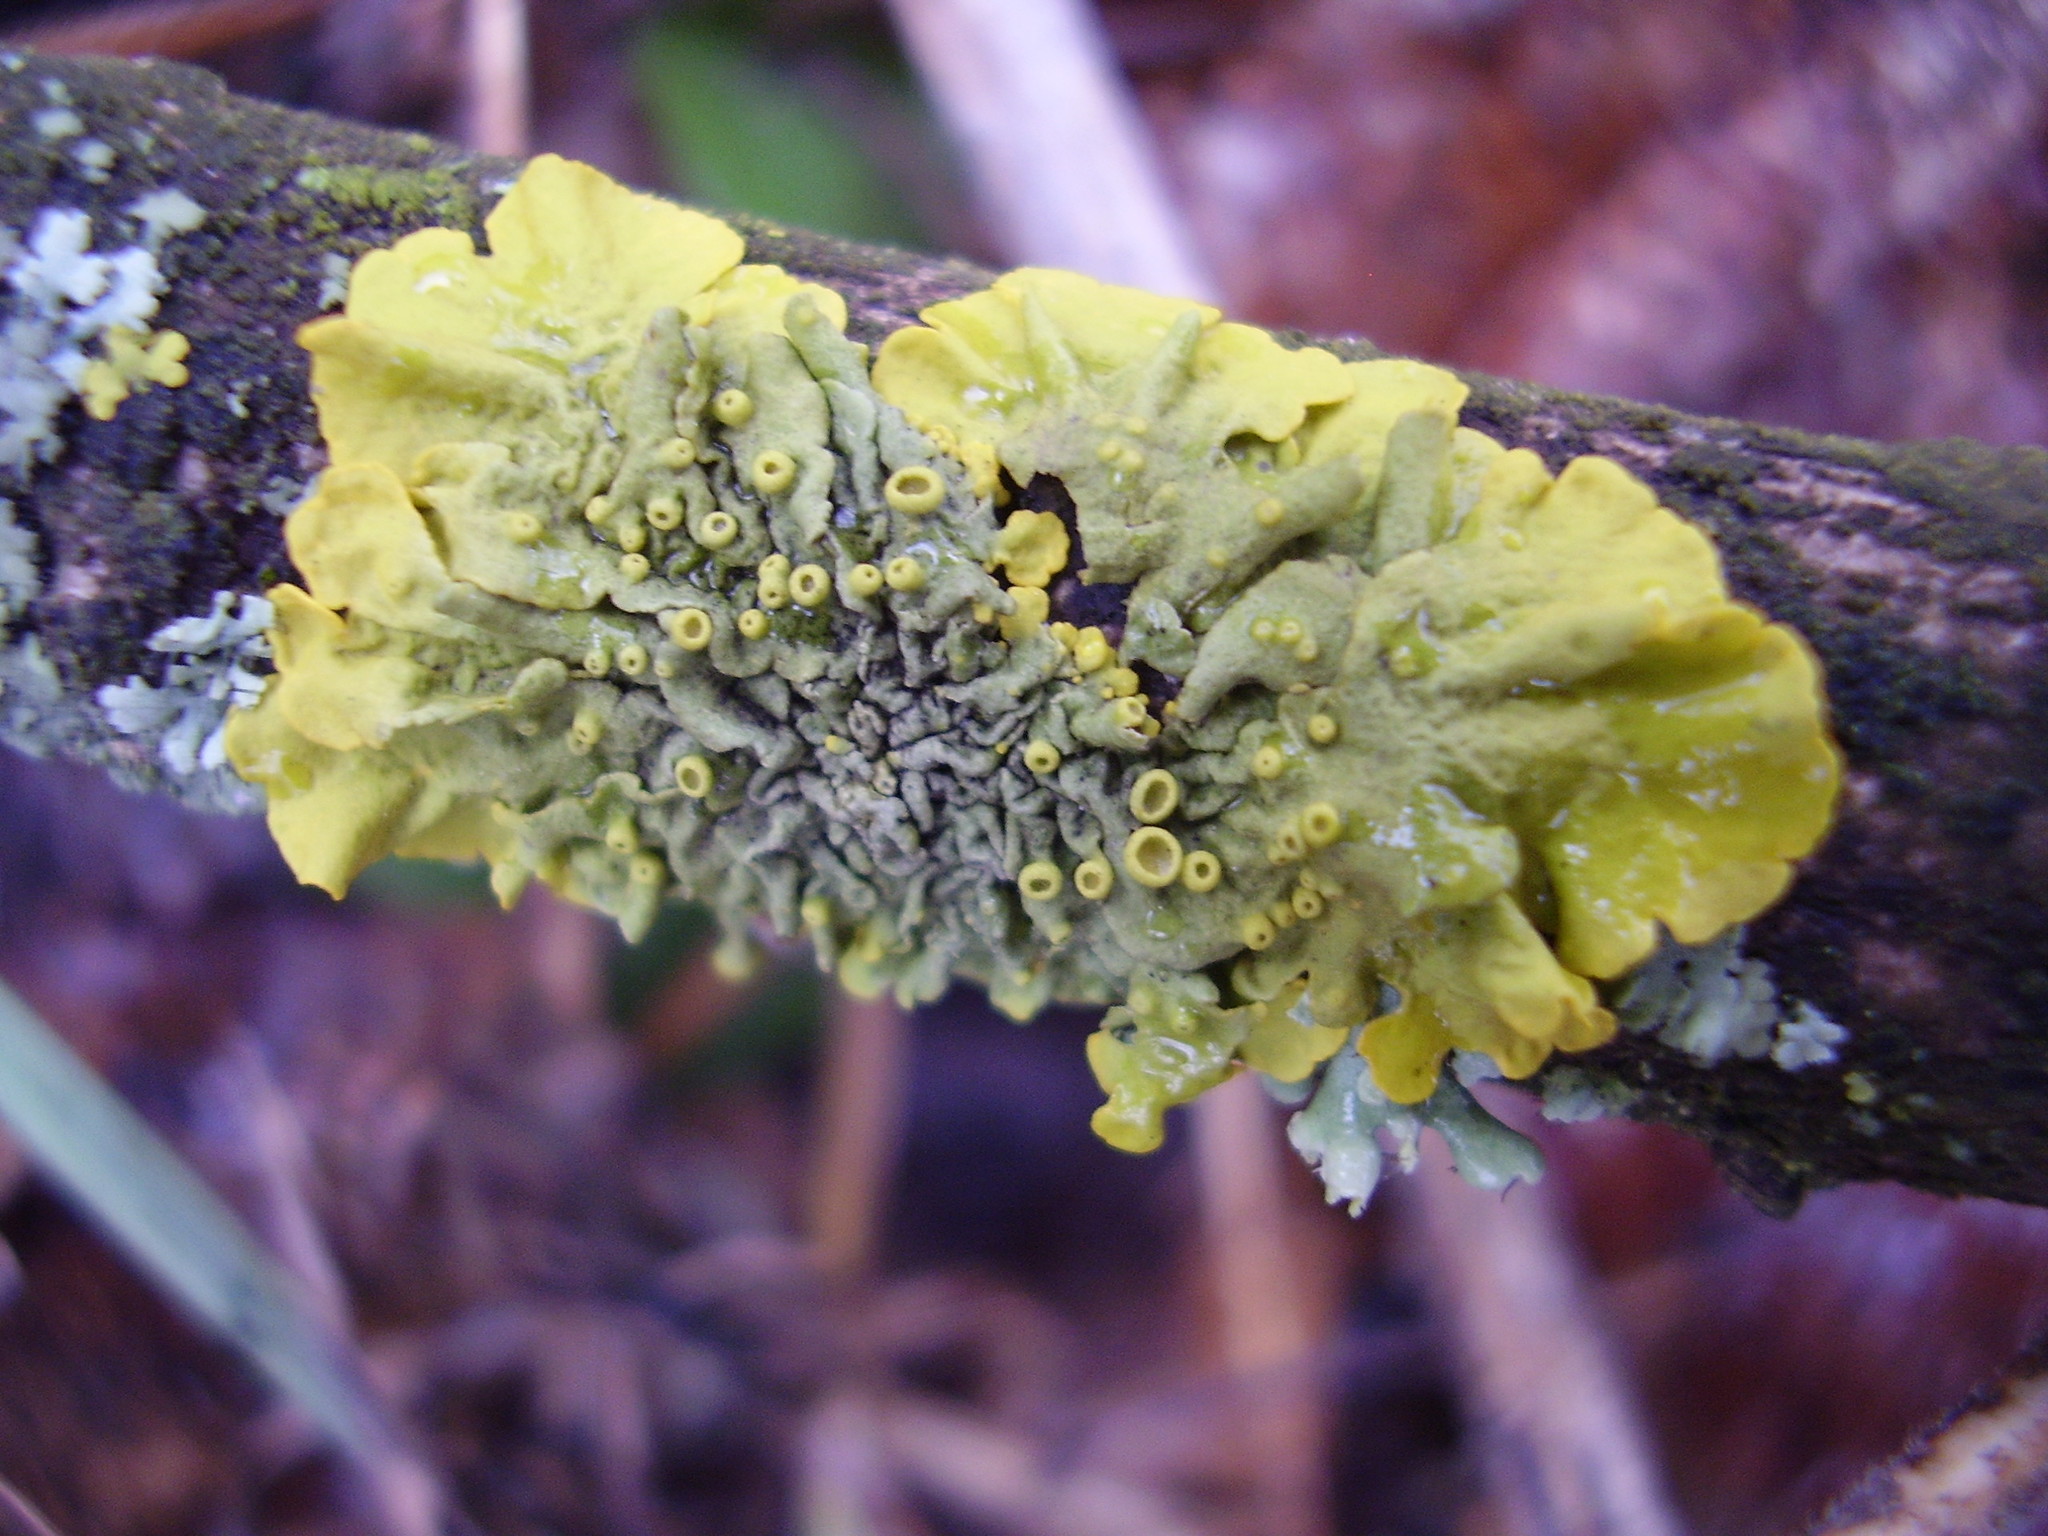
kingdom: Fungi
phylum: Ascomycota
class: Lecanoromycetes
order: Teloschistales
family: Teloschistaceae
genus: Xanthoria
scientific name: Xanthoria parietina
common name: Common orange lichen
